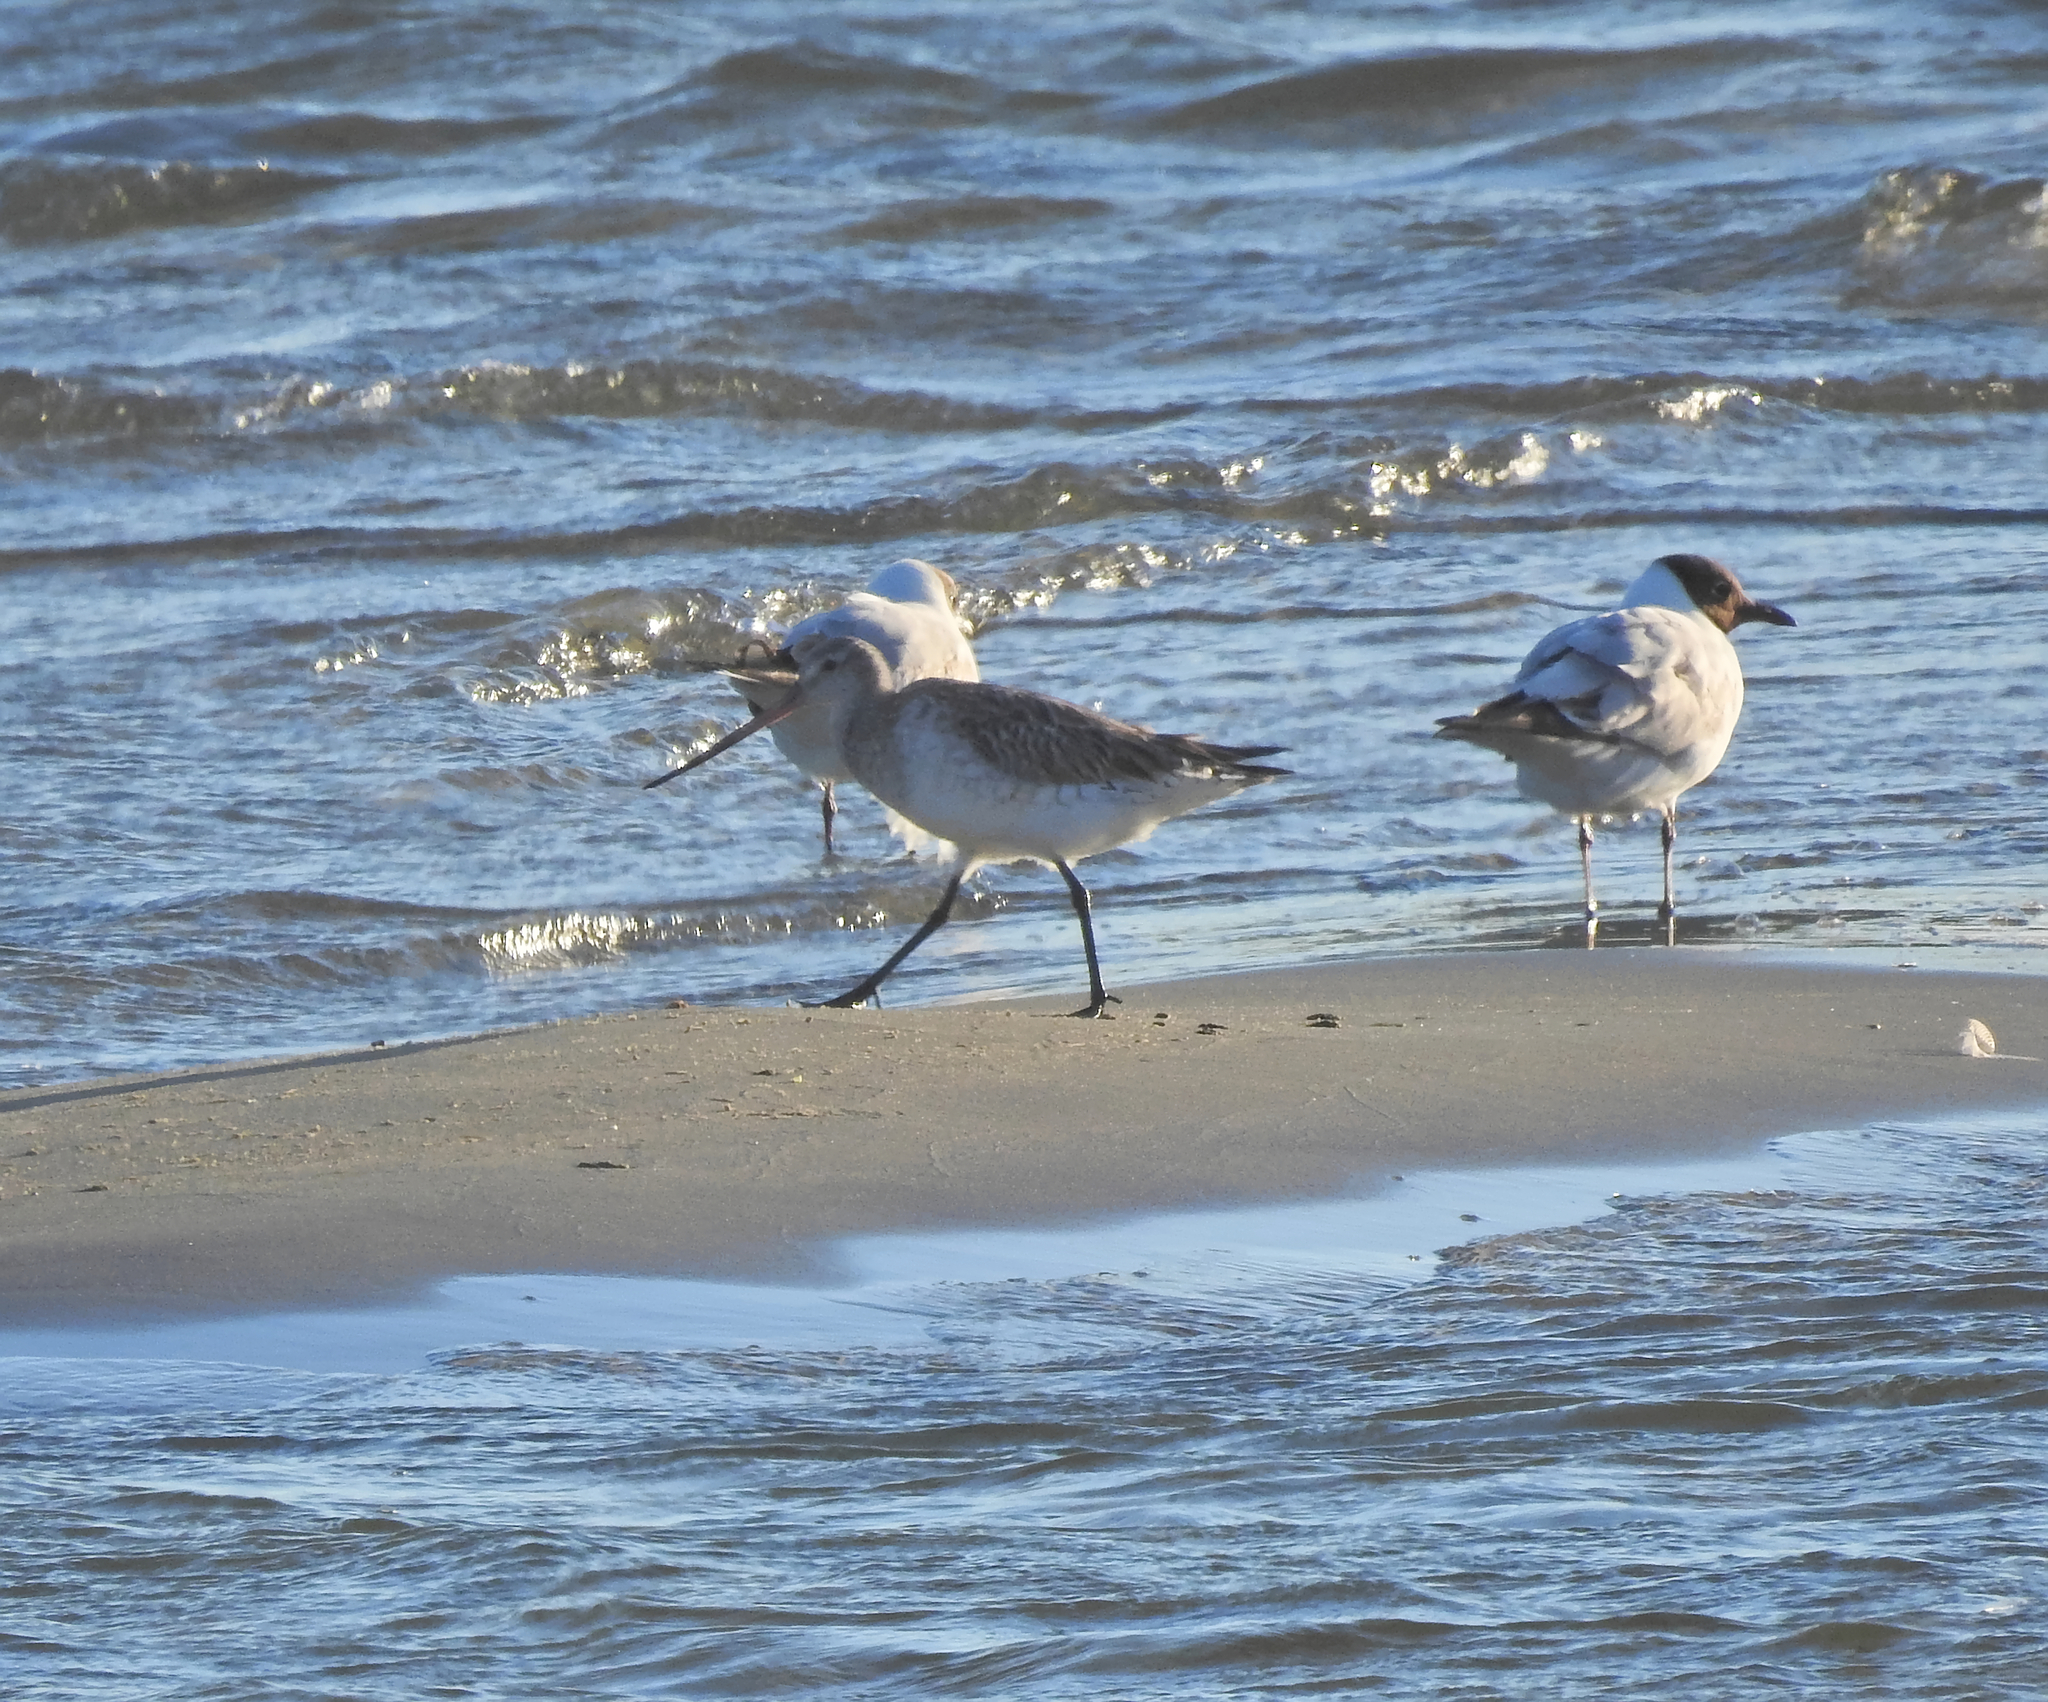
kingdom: Animalia
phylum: Chordata
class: Aves
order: Charadriiformes
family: Scolopacidae
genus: Limosa
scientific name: Limosa lapponica
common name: Bar-tailed godwit
